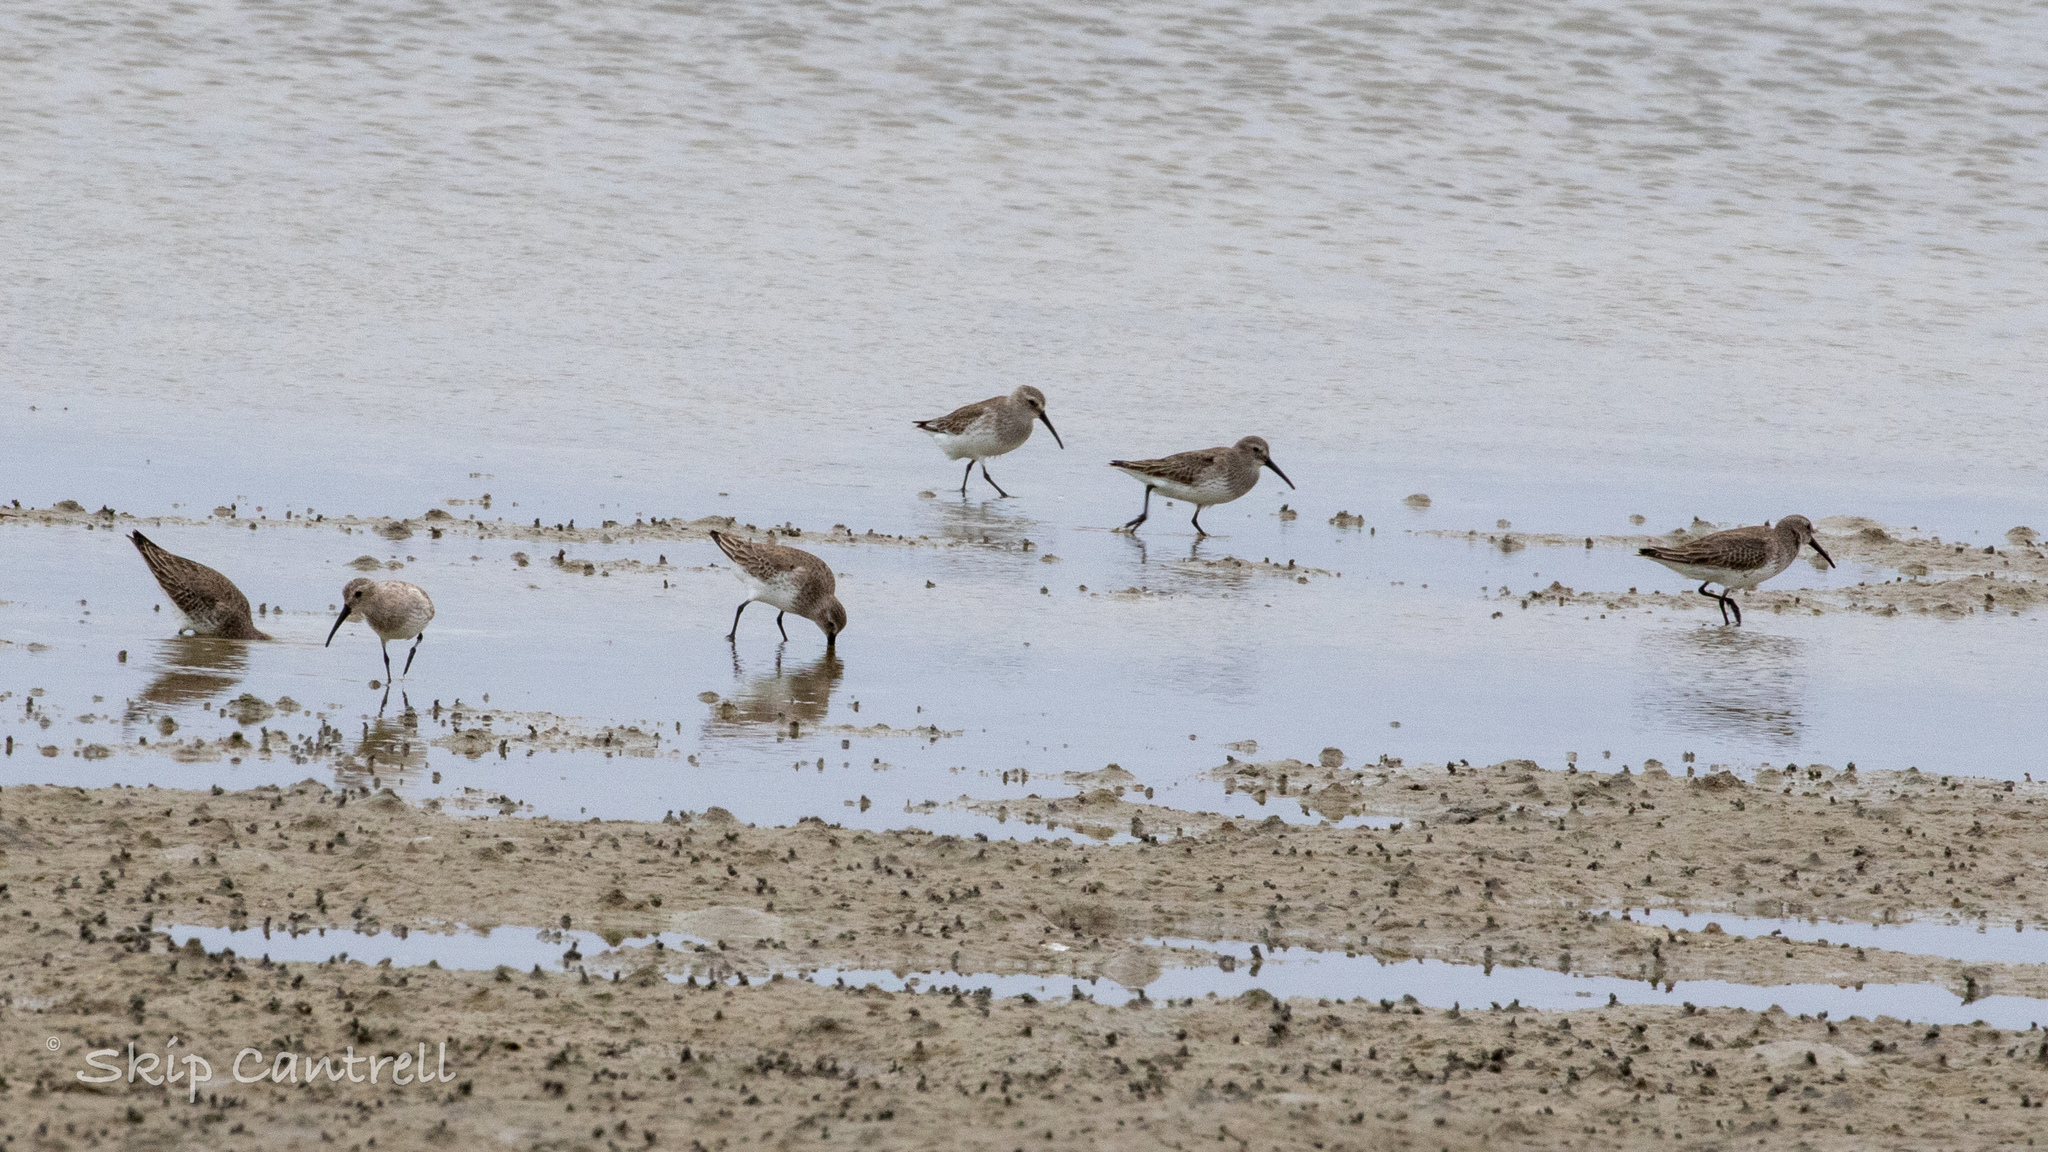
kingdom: Animalia
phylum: Chordata
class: Aves
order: Charadriiformes
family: Scolopacidae
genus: Calidris
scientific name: Calidris alpina
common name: Dunlin
